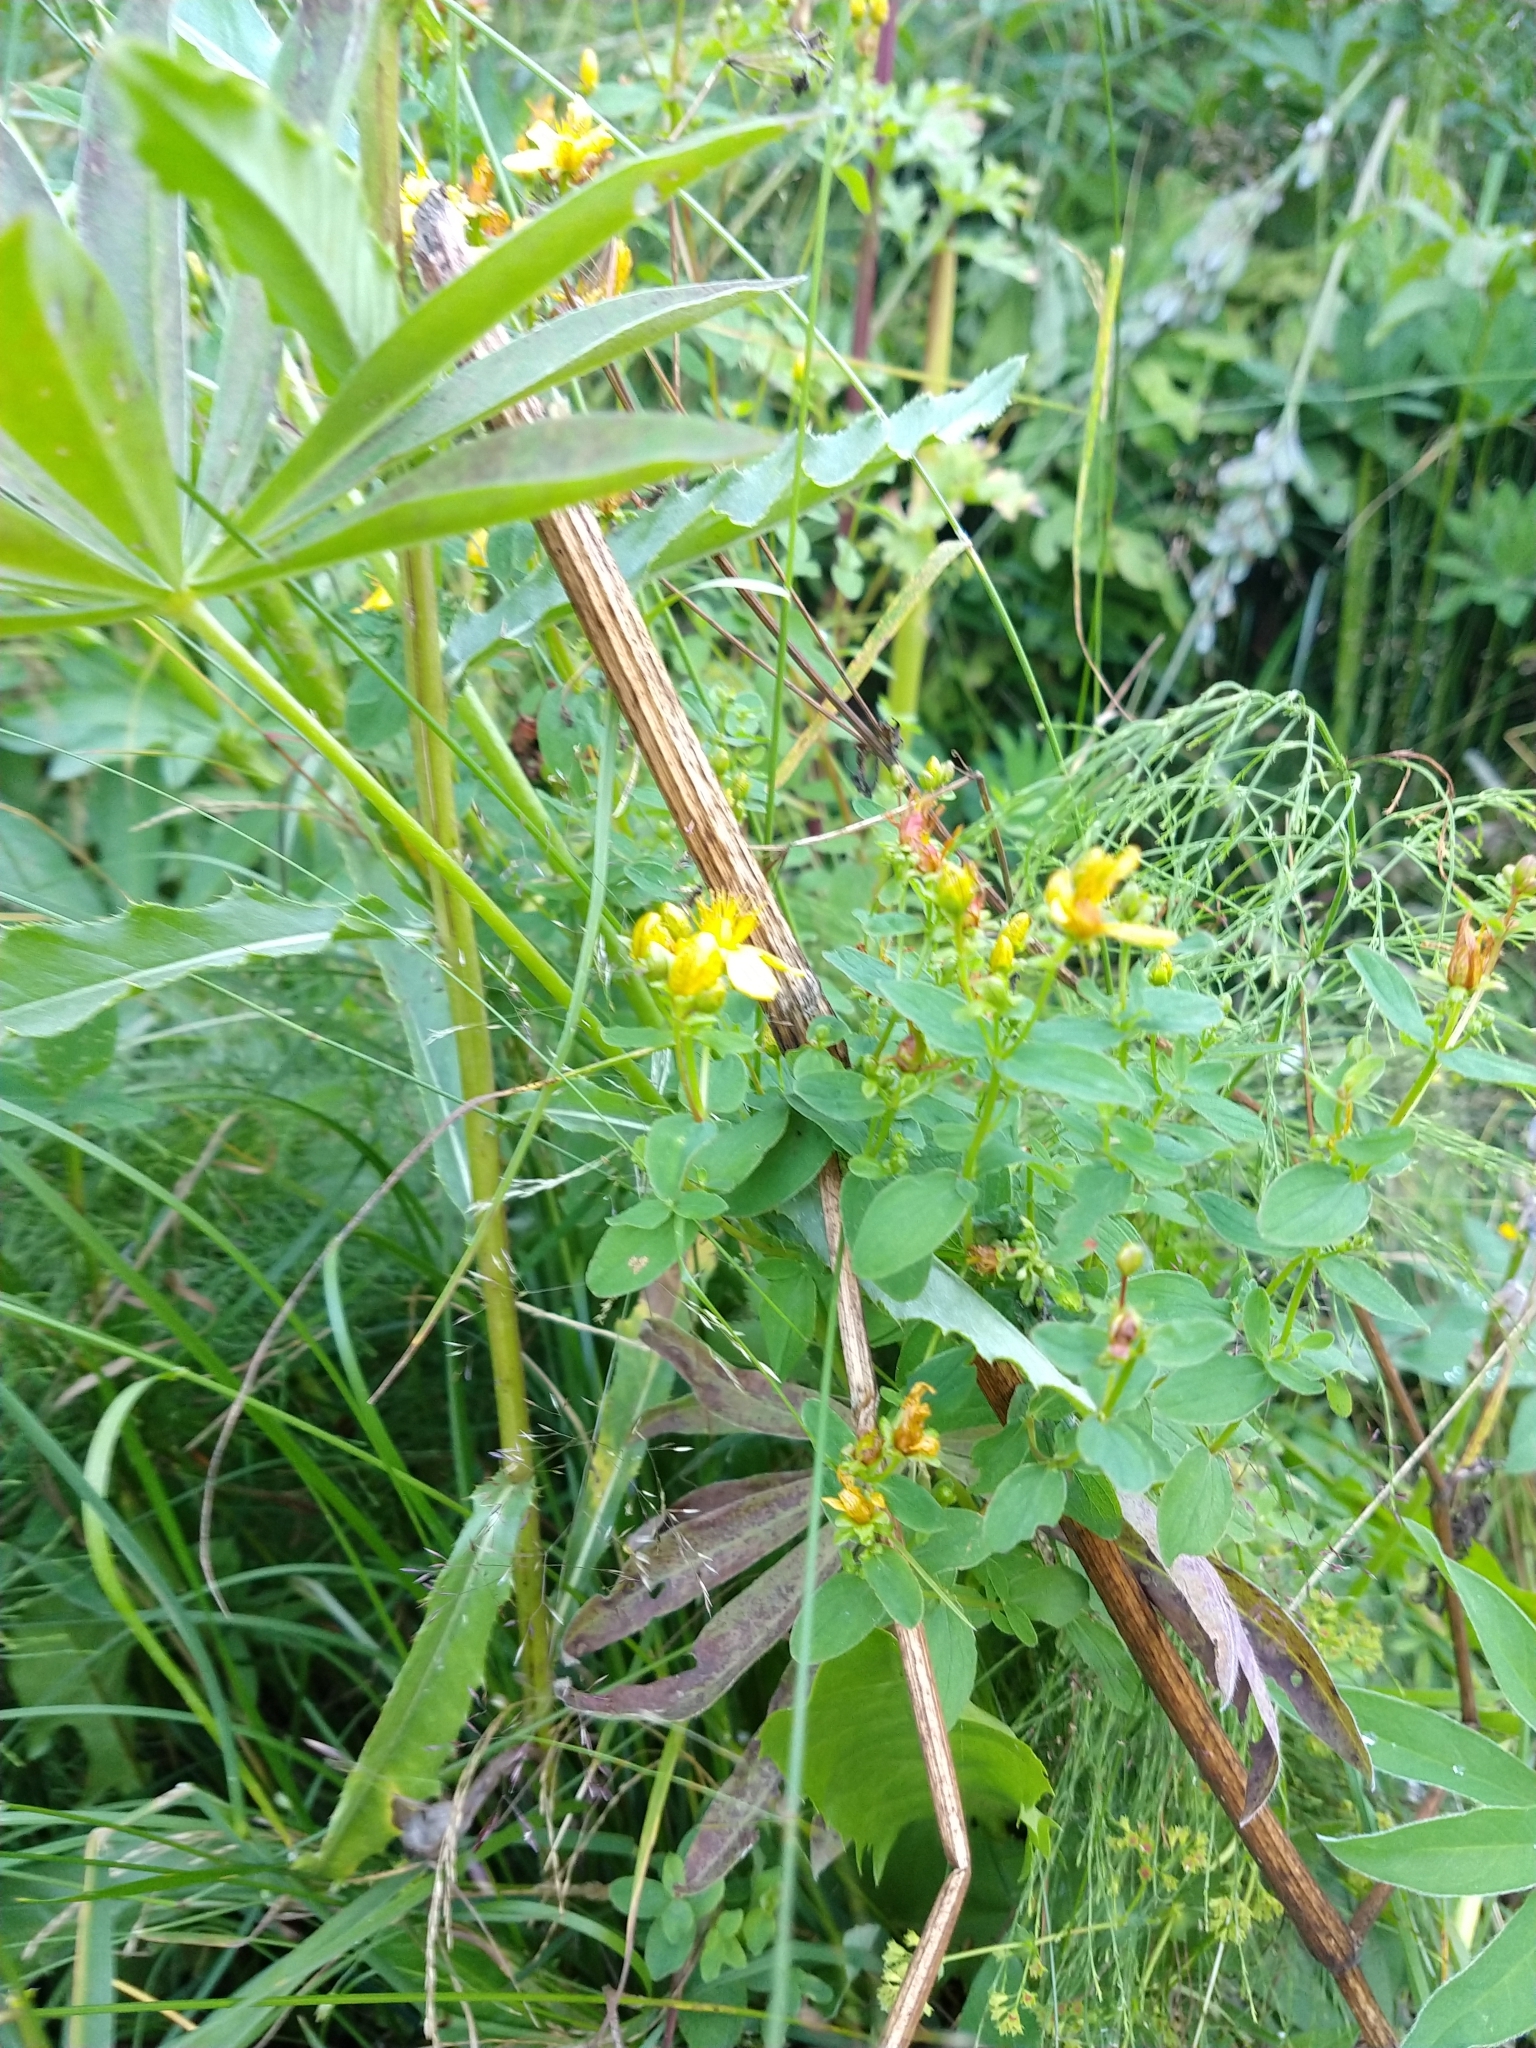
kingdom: Plantae
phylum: Tracheophyta
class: Magnoliopsida
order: Malpighiales
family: Hypericaceae
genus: Hypericum
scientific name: Hypericum maculatum
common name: Imperforate st. john's-wort
